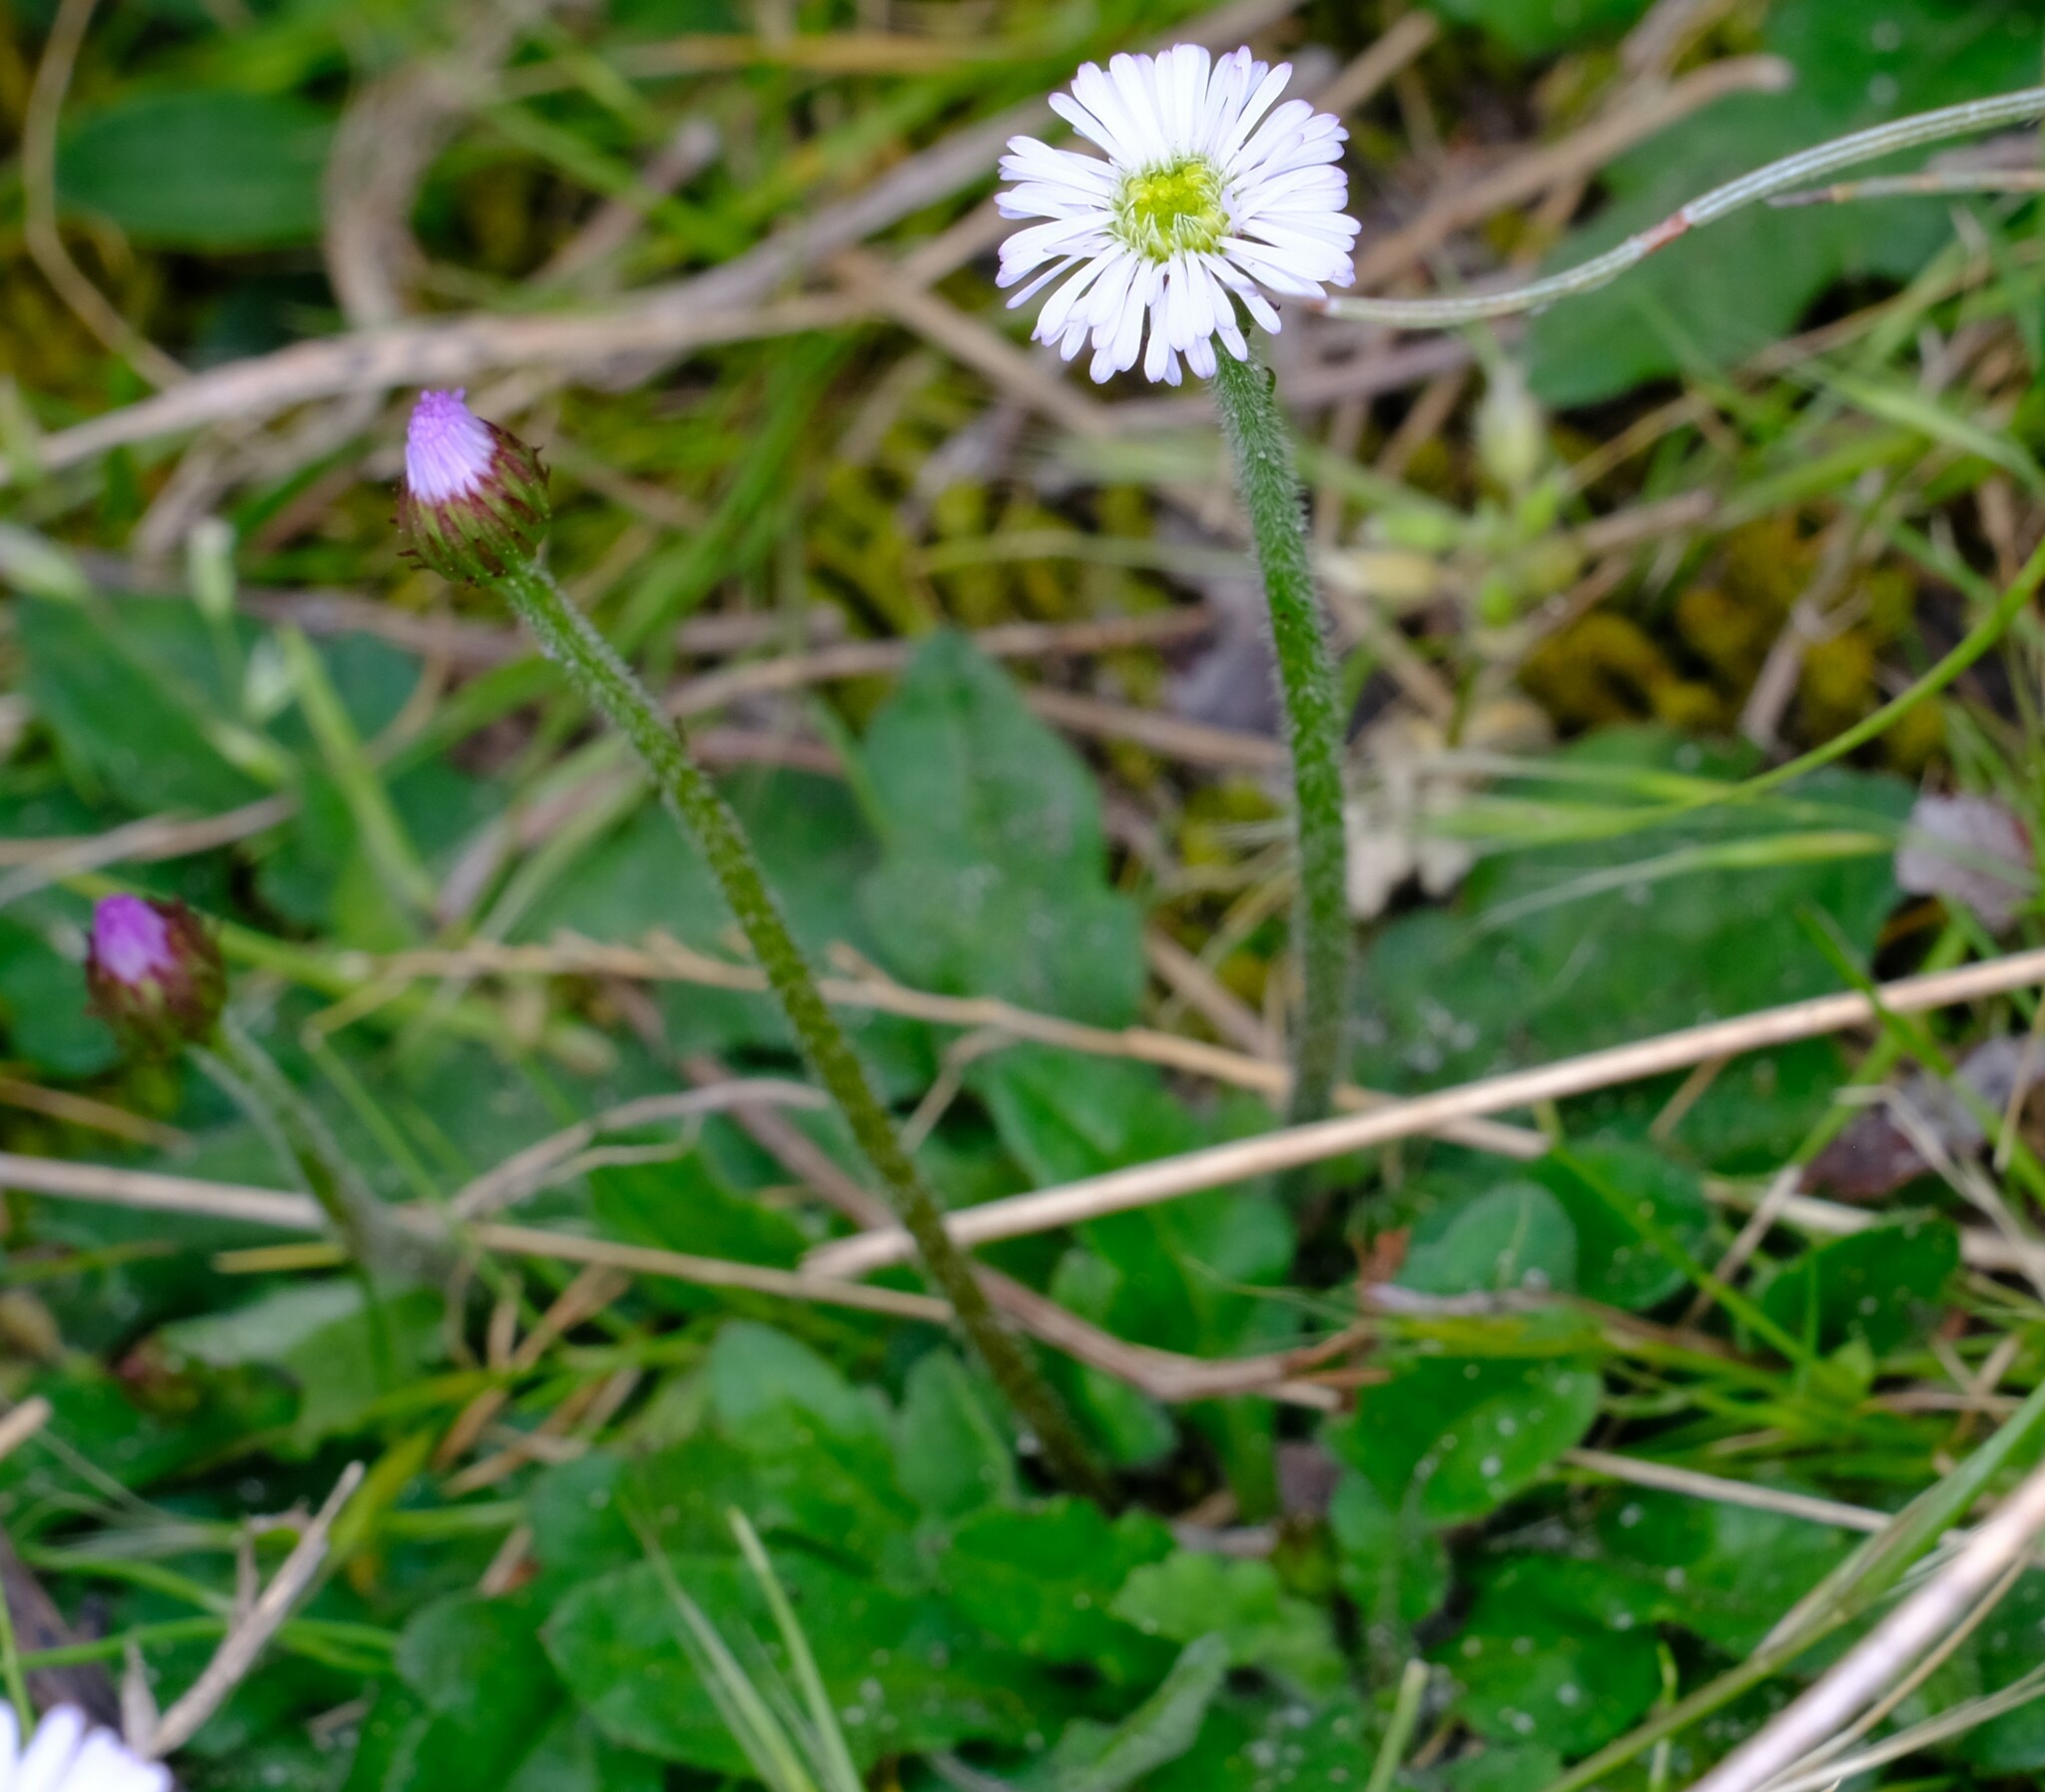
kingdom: Plantae
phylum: Tracheophyta
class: Magnoliopsida
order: Asterales
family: Asteraceae
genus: Lagenophora
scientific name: Lagenophora stipitata
